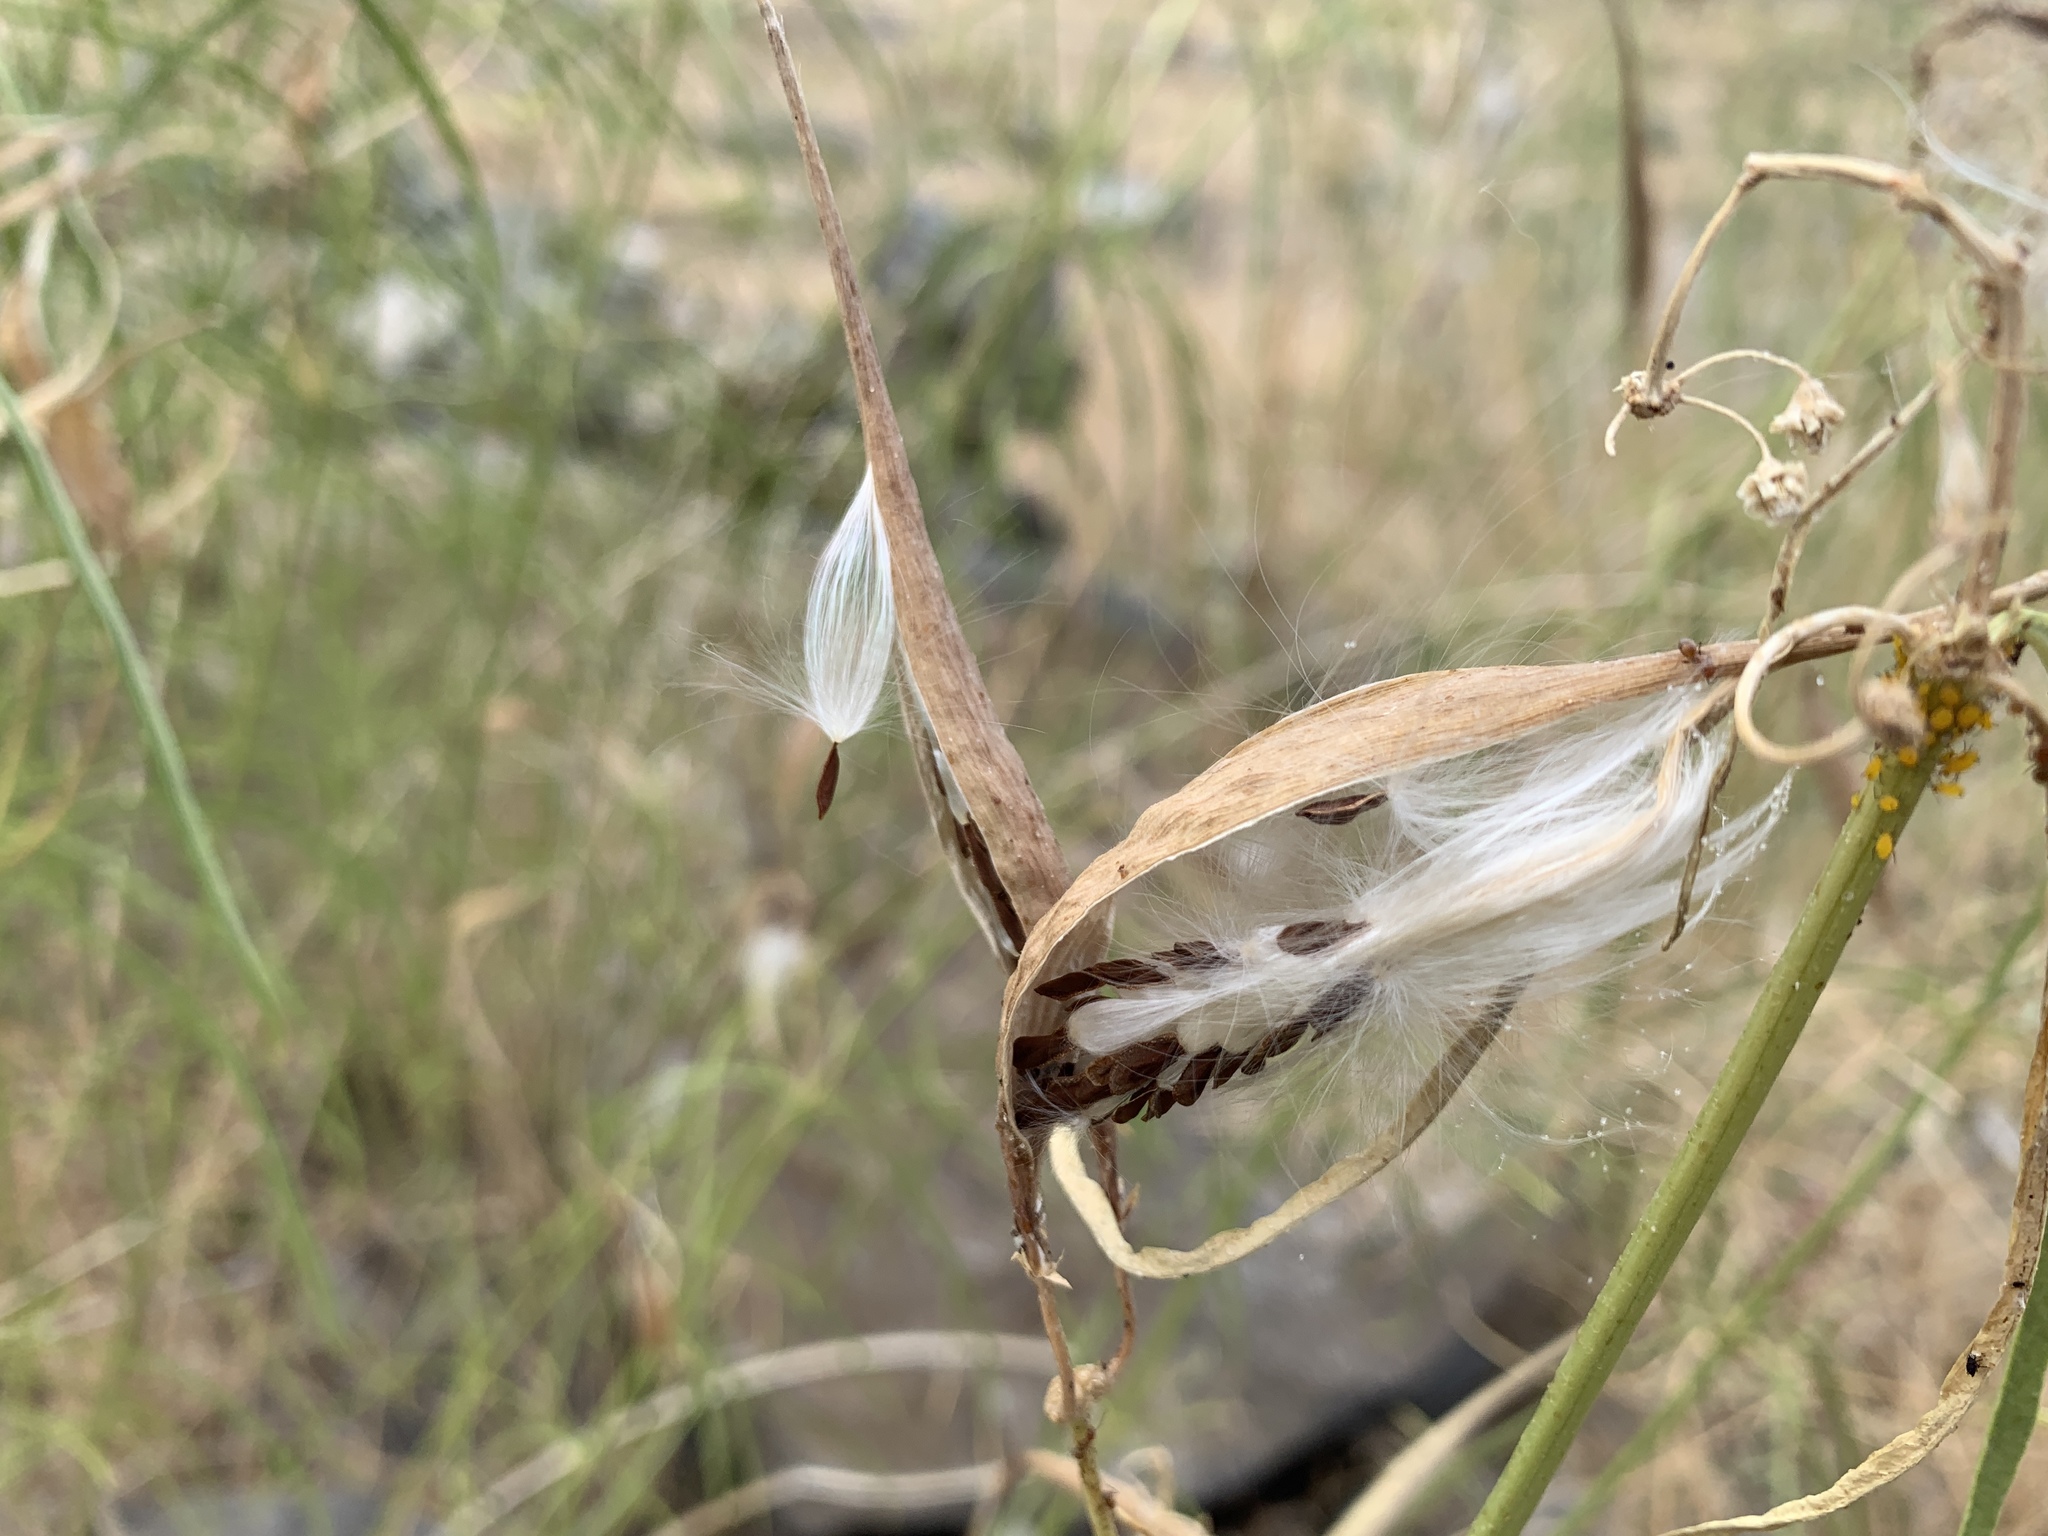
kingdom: Plantae
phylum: Tracheophyta
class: Magnoliopsida
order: Gentianales
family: Apocynaceae
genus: Asclepias
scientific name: Asclepias fascicularis
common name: Mexican milkweed
